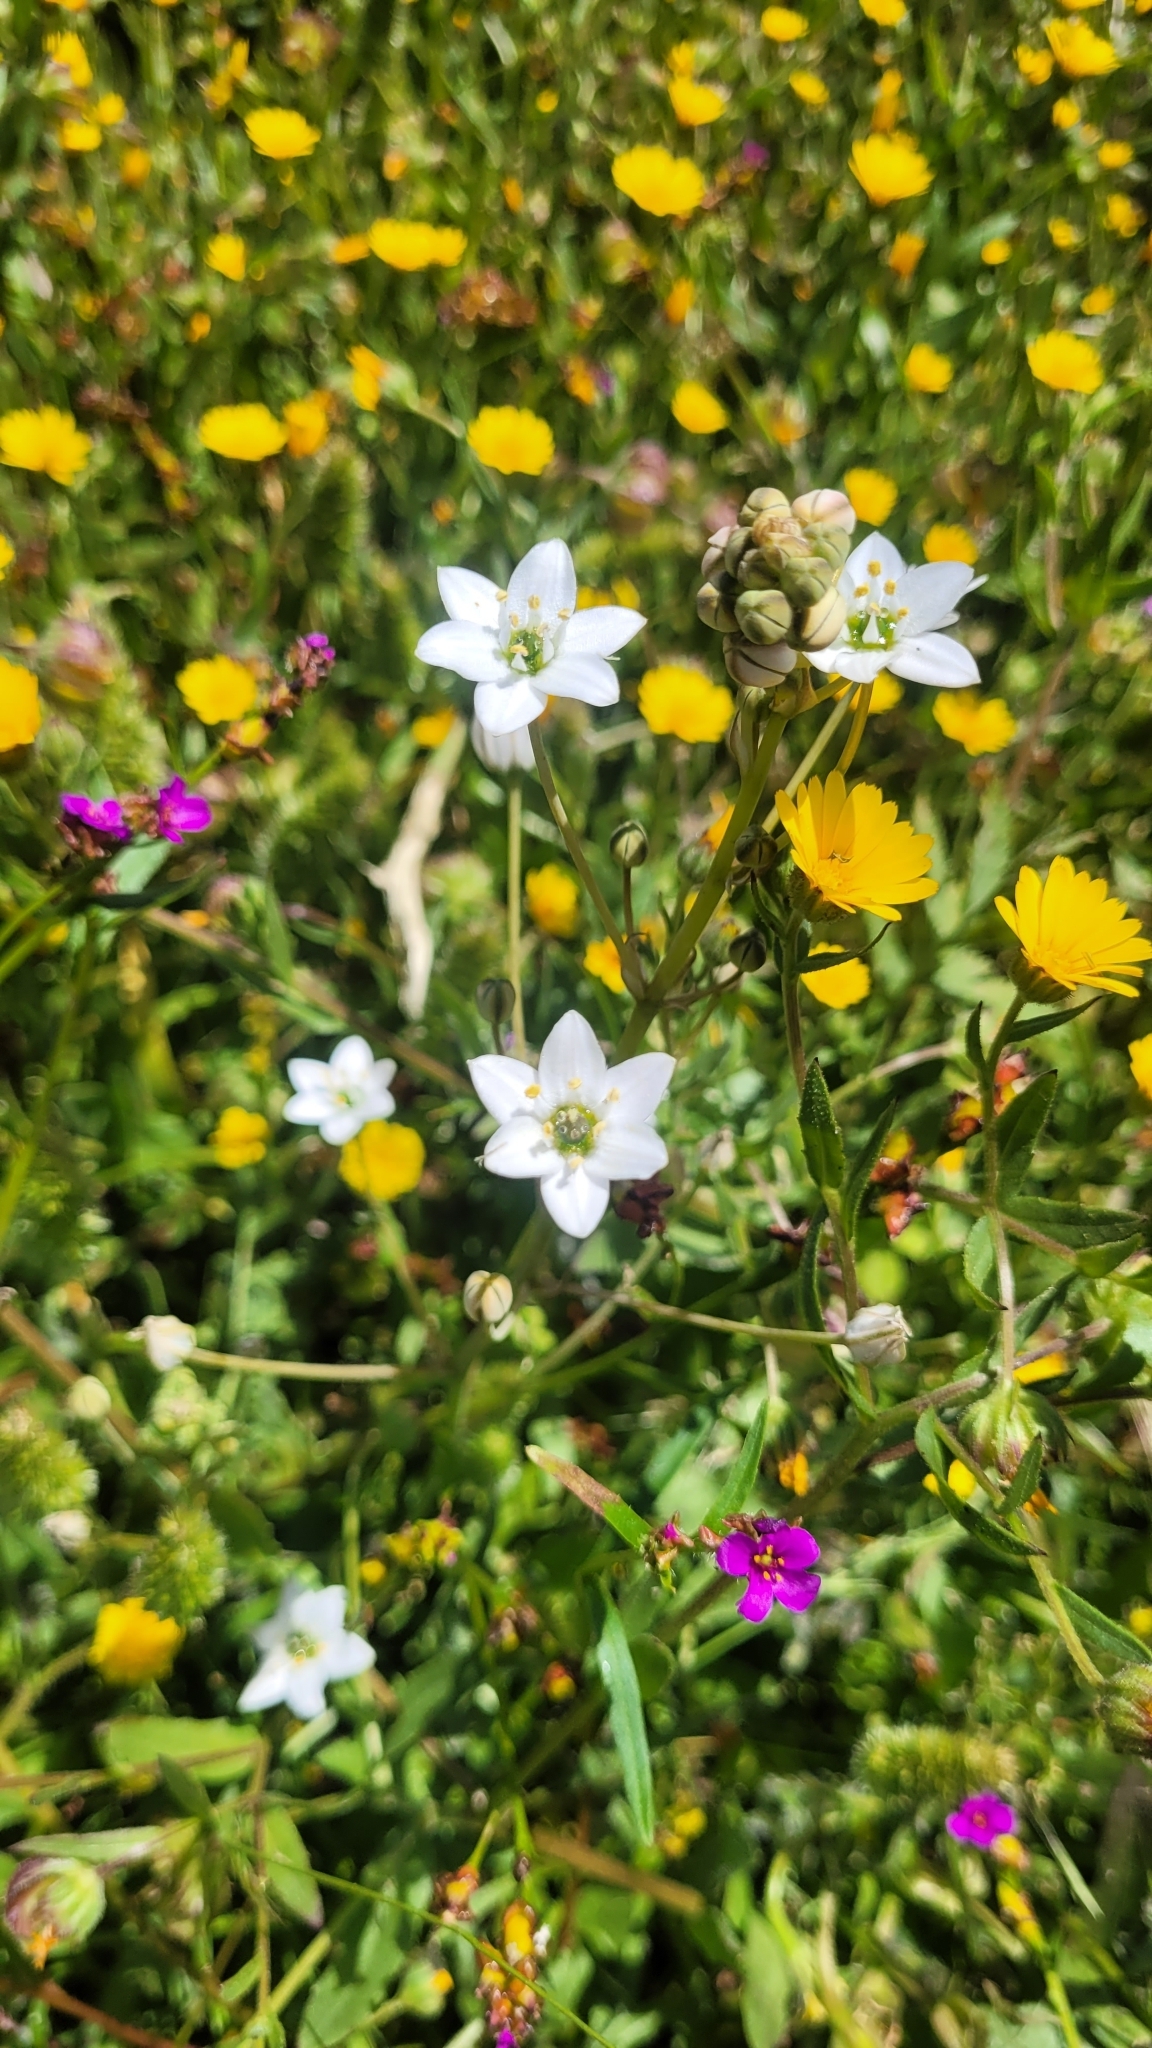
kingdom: Plantae
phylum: Tracheophyta
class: Liliopsida
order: Asparagales
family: Asparagaceae
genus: Oziroe
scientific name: Oziroe biflora
